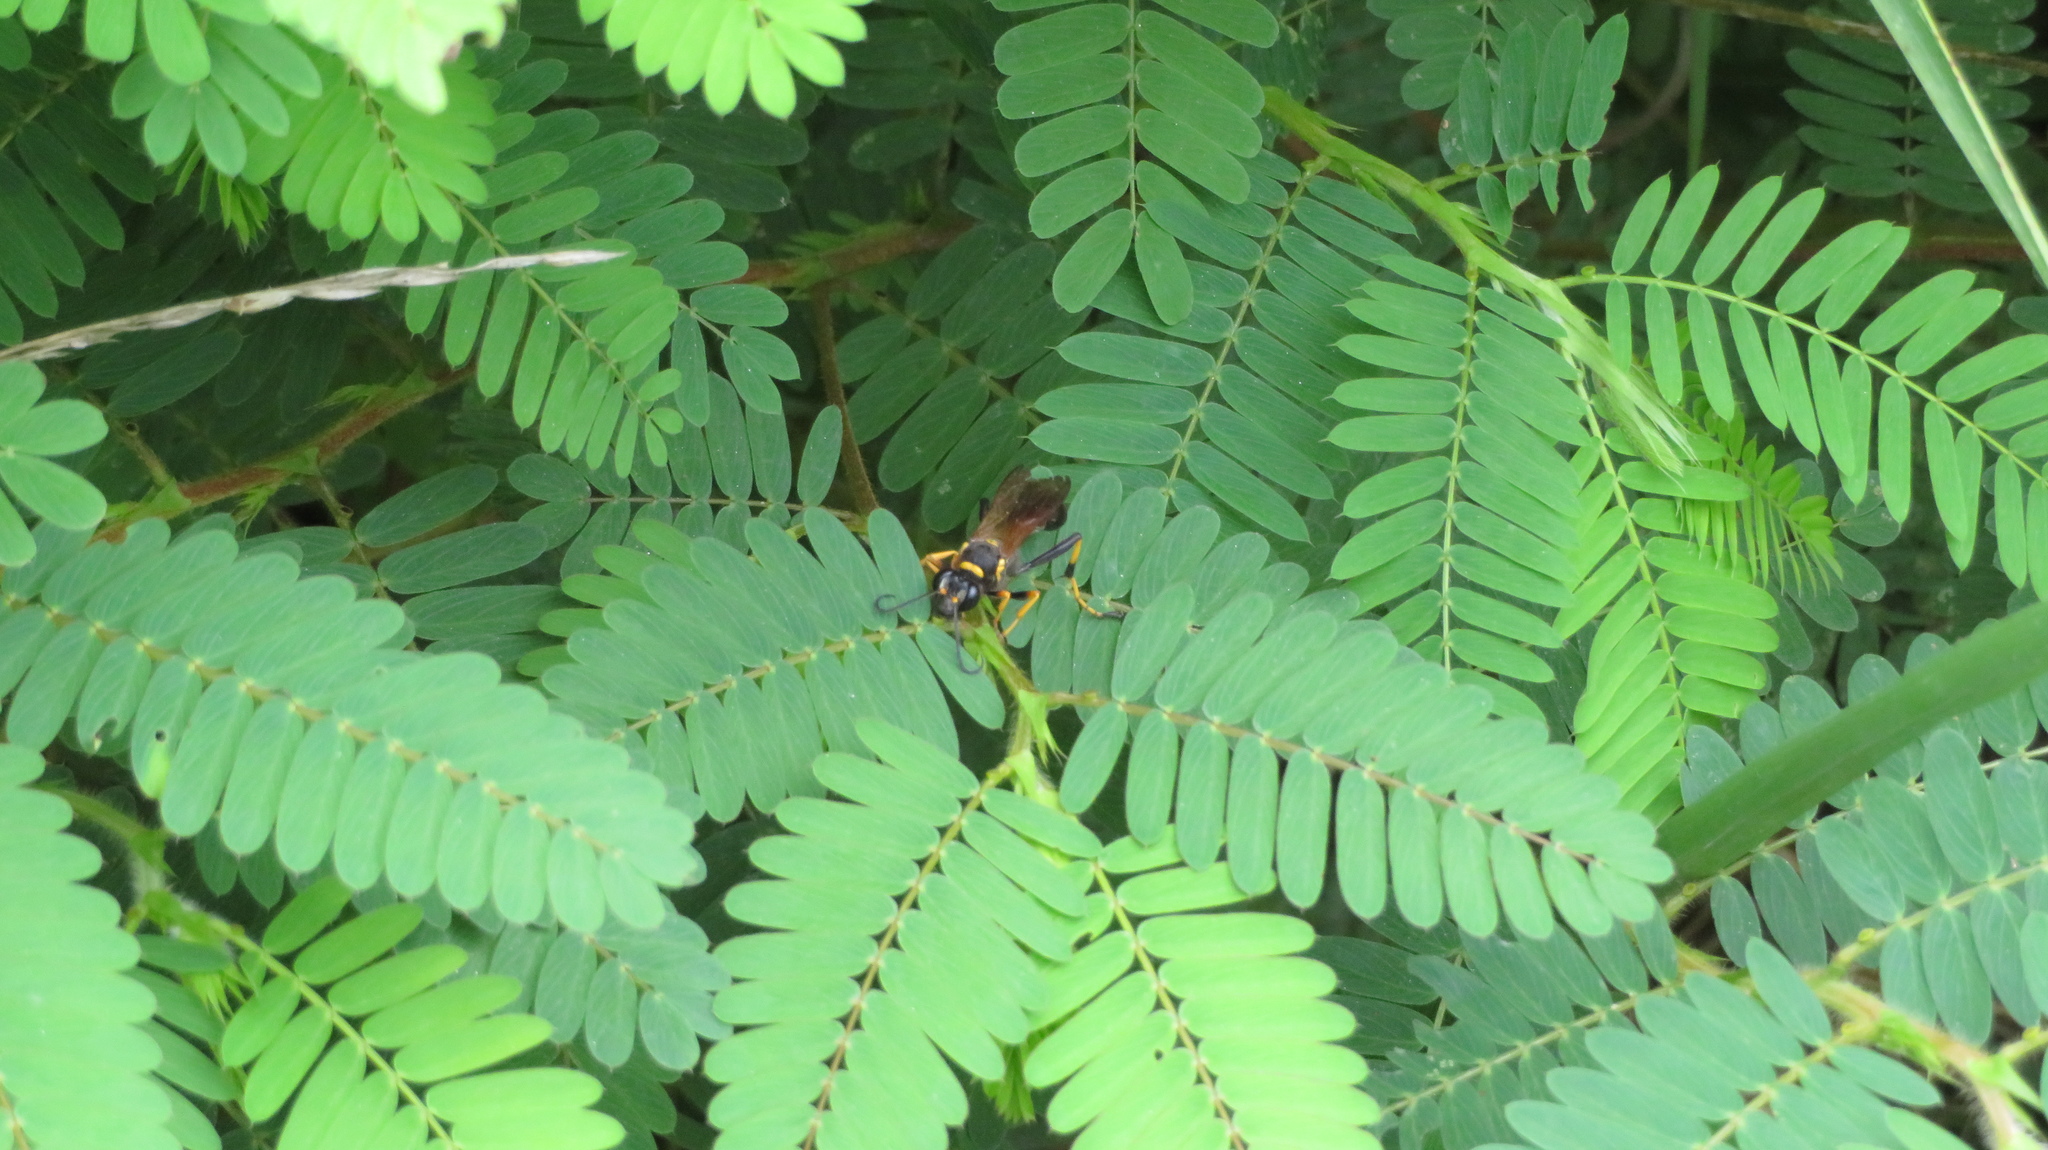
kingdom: Animalia
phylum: Arthropoda
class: Insecta
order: Hymenoptera
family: Sphecidae
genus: Sceliphron
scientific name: Sceliphron caementarium
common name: Mud dauber
